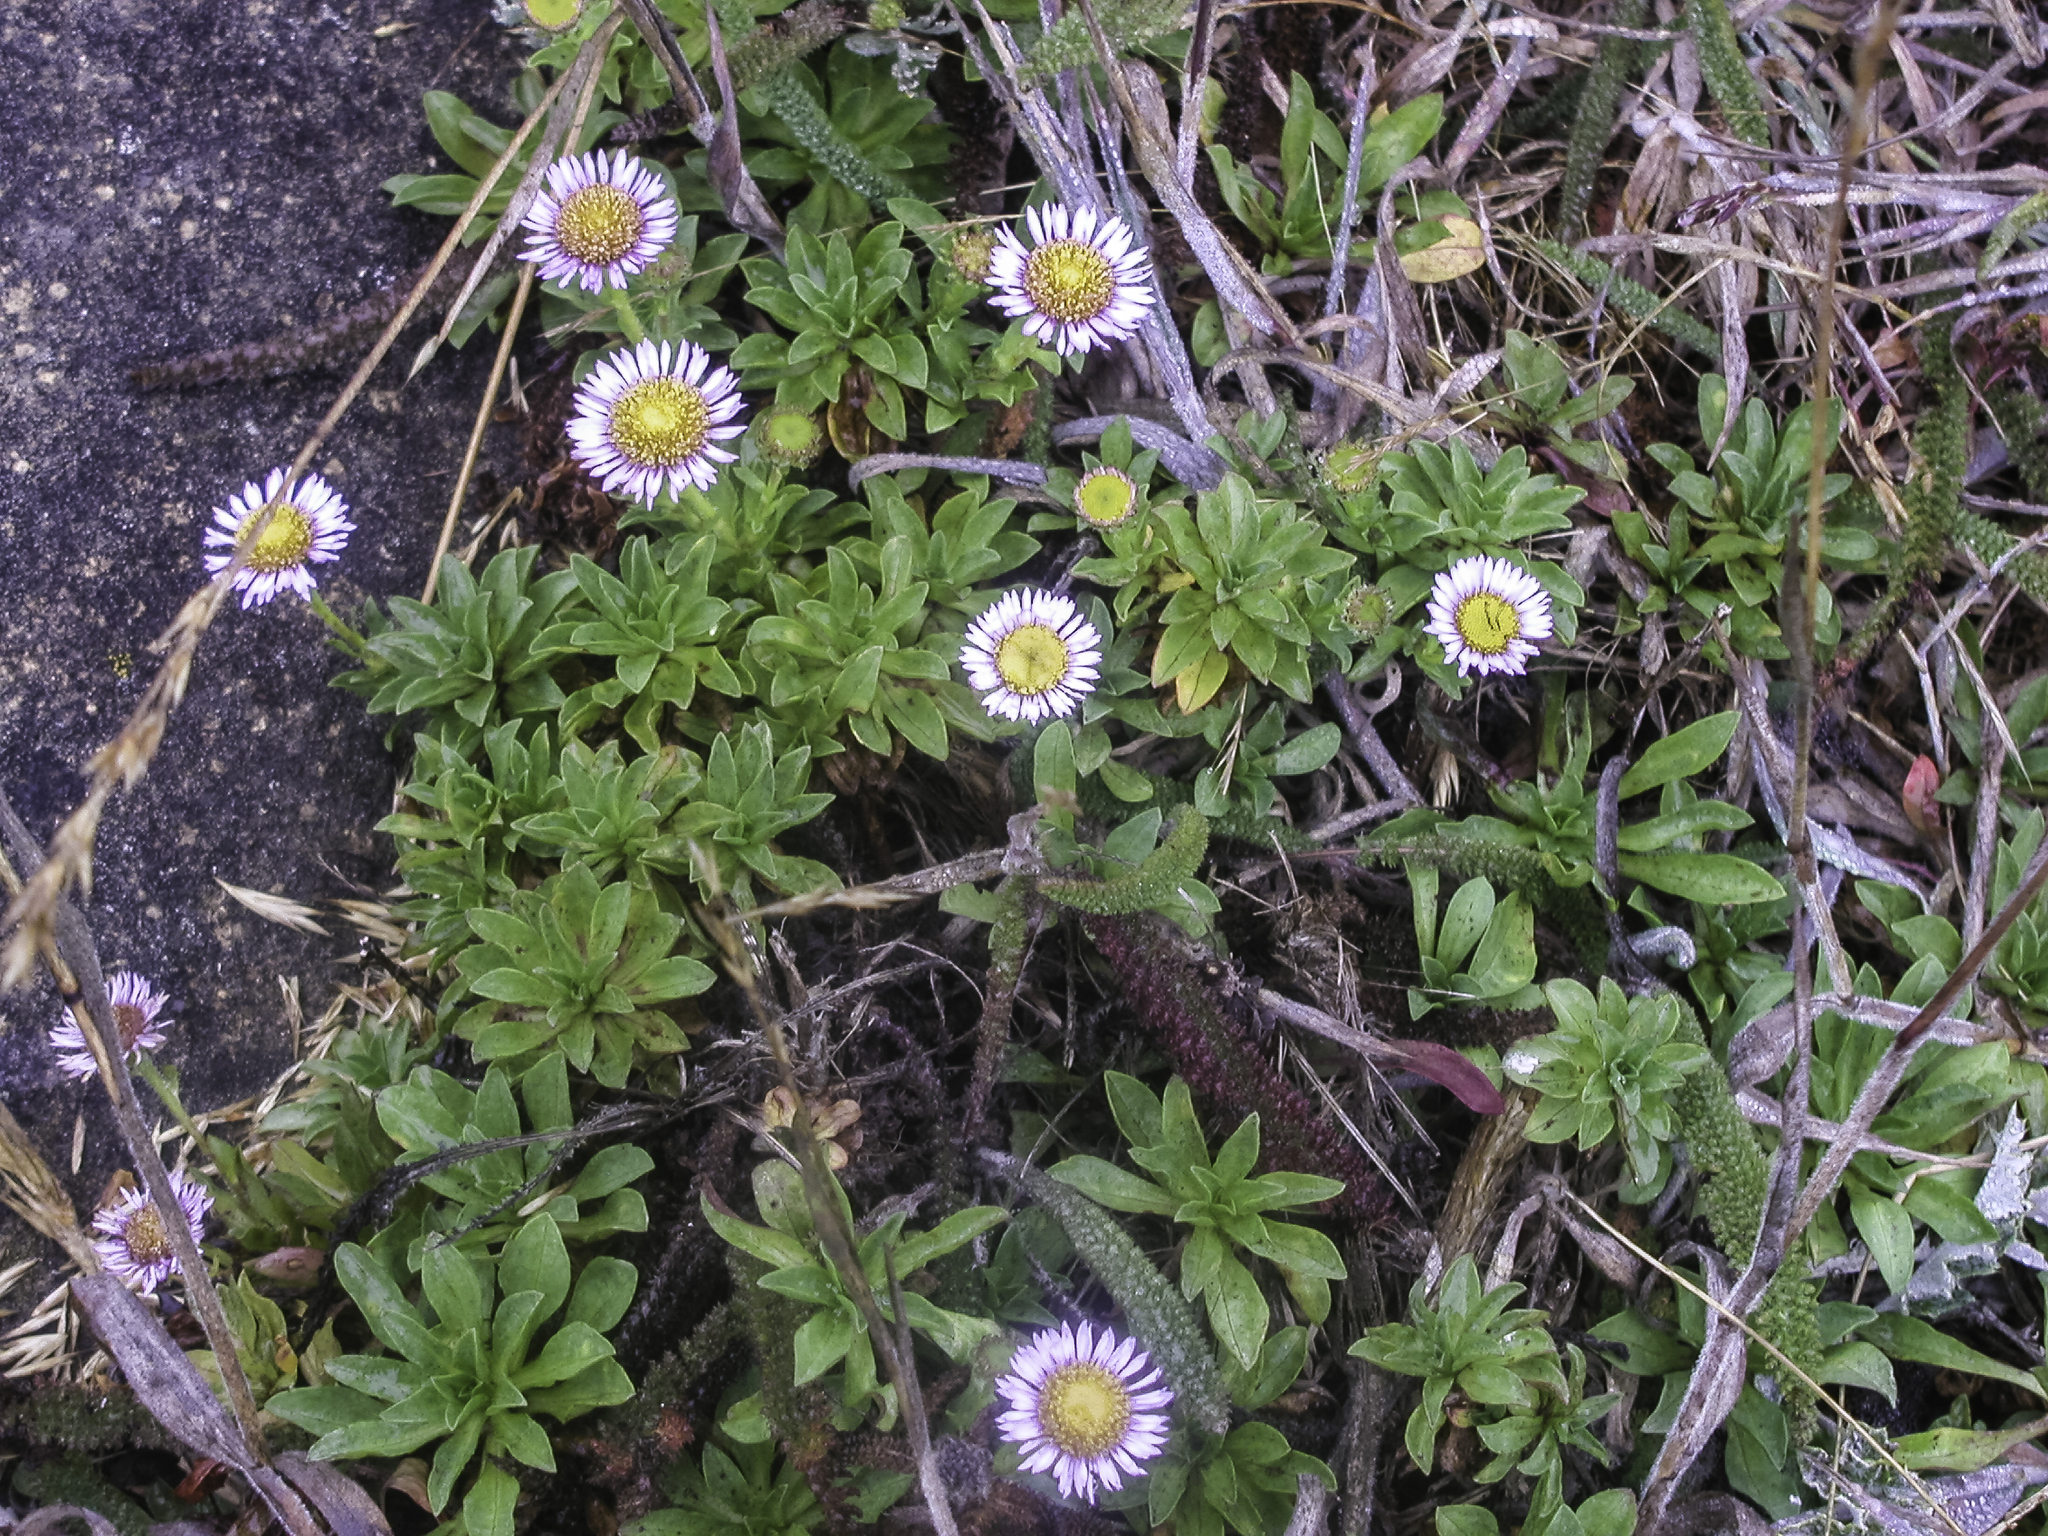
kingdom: Plantae
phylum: Tracheophyta
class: Magnoliopsida
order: Asterales
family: Asteraceae
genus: Erigeron
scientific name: Erigeron glaucus
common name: Seaside daisy
